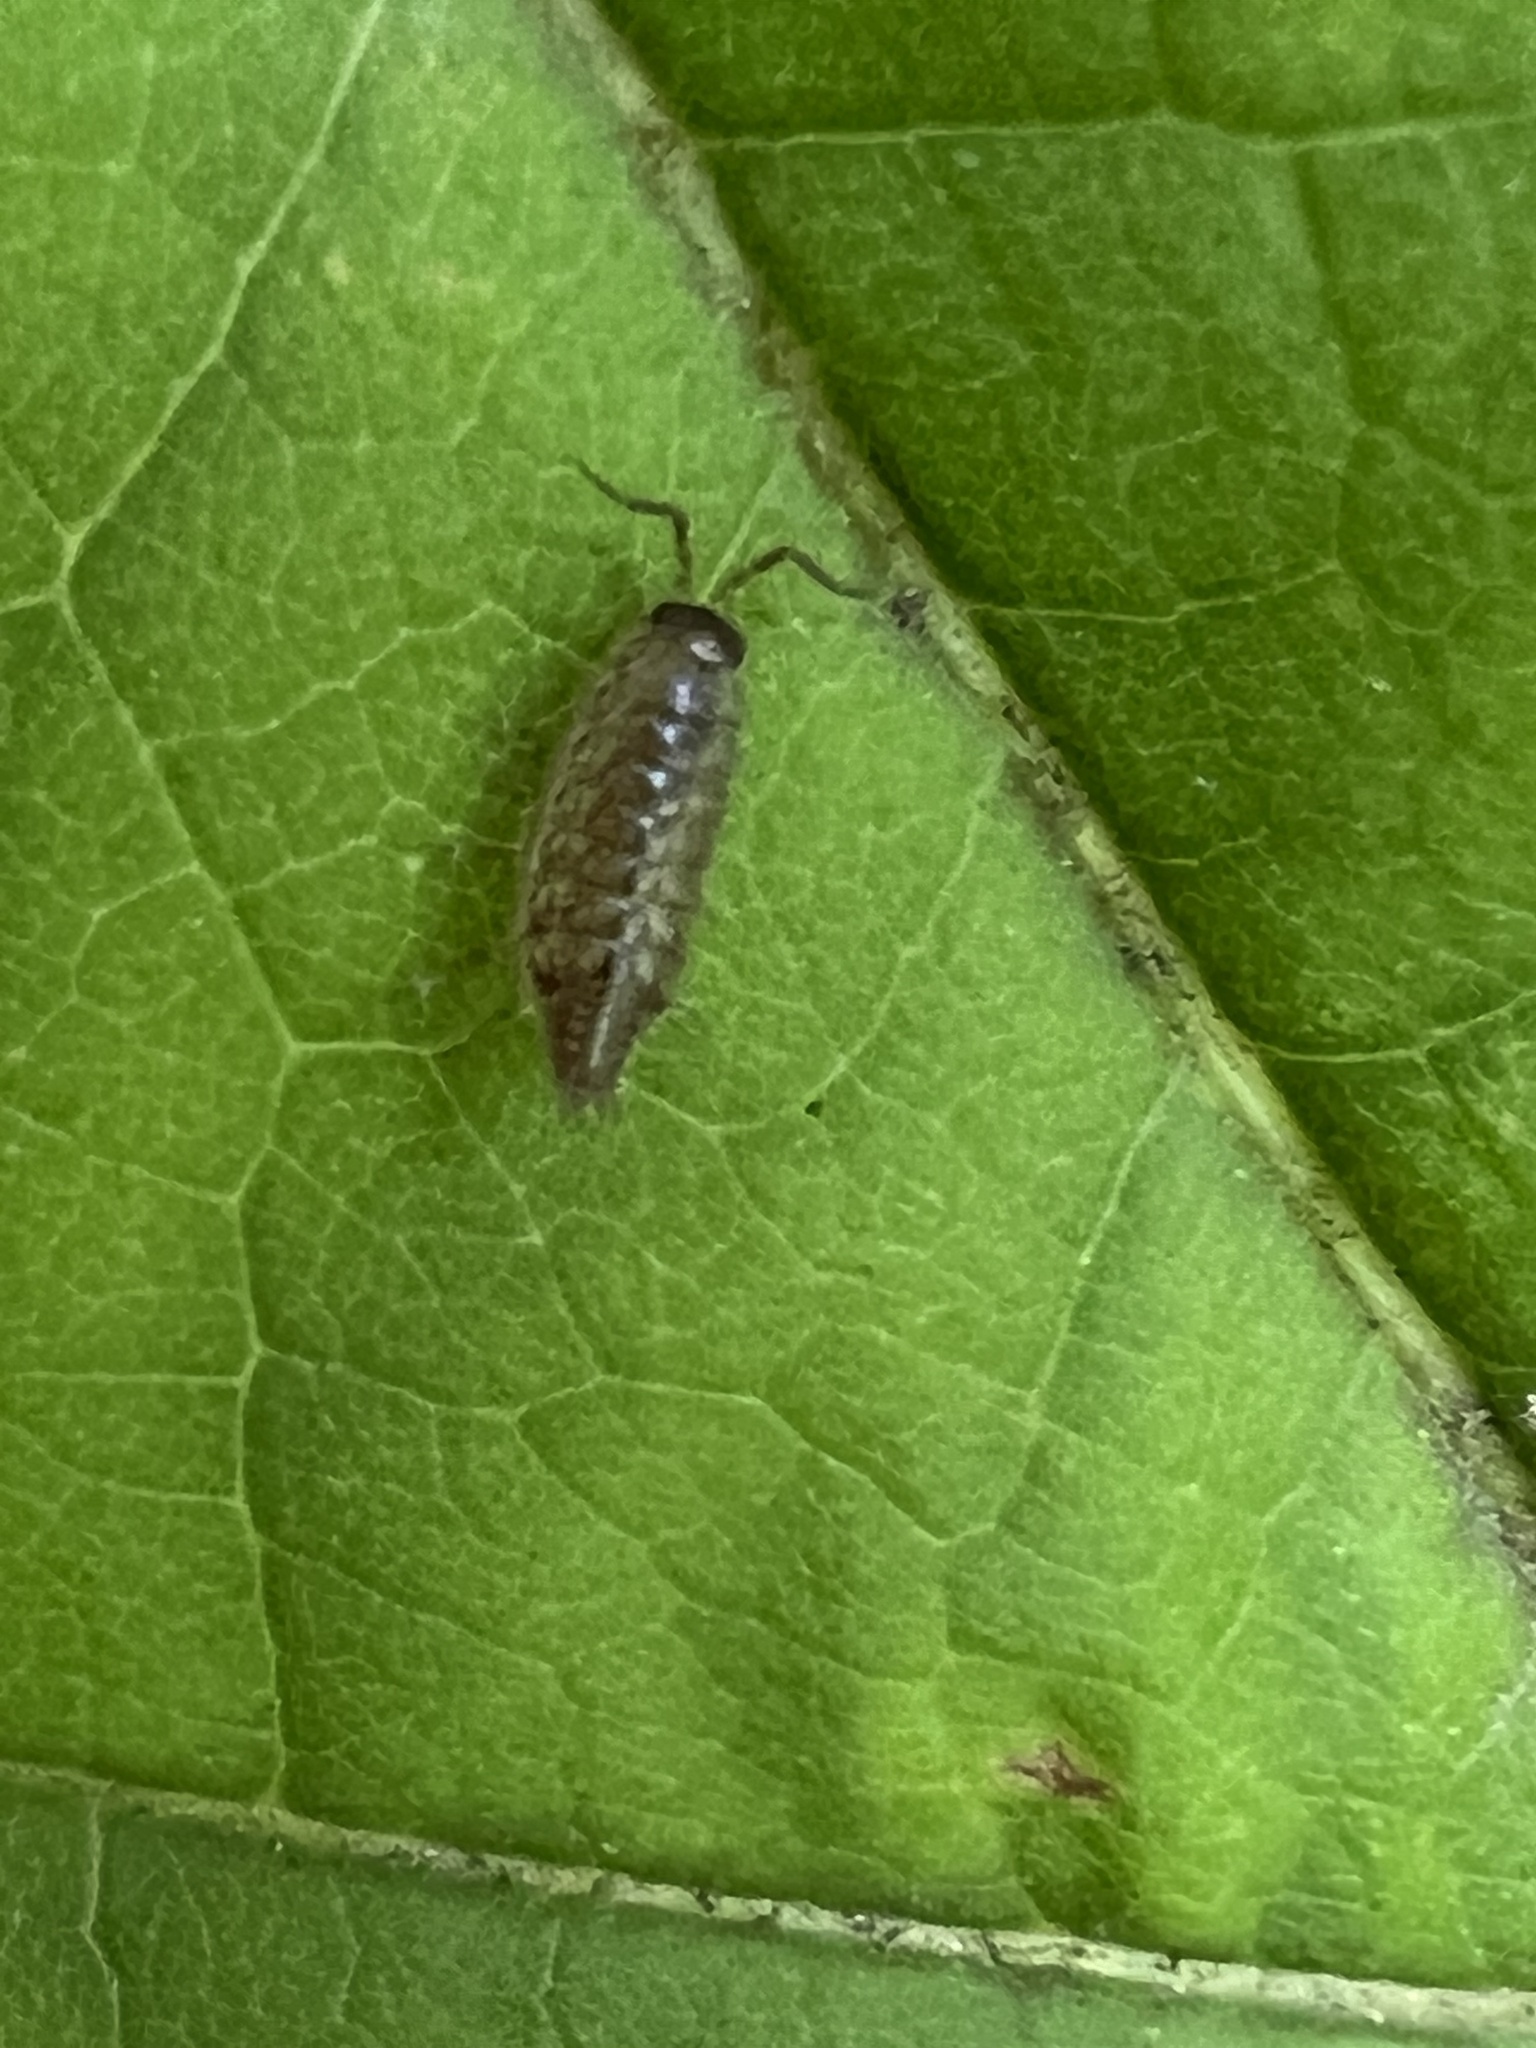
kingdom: Animalia
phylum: Arthropoda
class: Malacostraca
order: Isopoda
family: Philosciidae
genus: Philoscia
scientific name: Philoscia muscorum
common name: Common striped woodlouse
